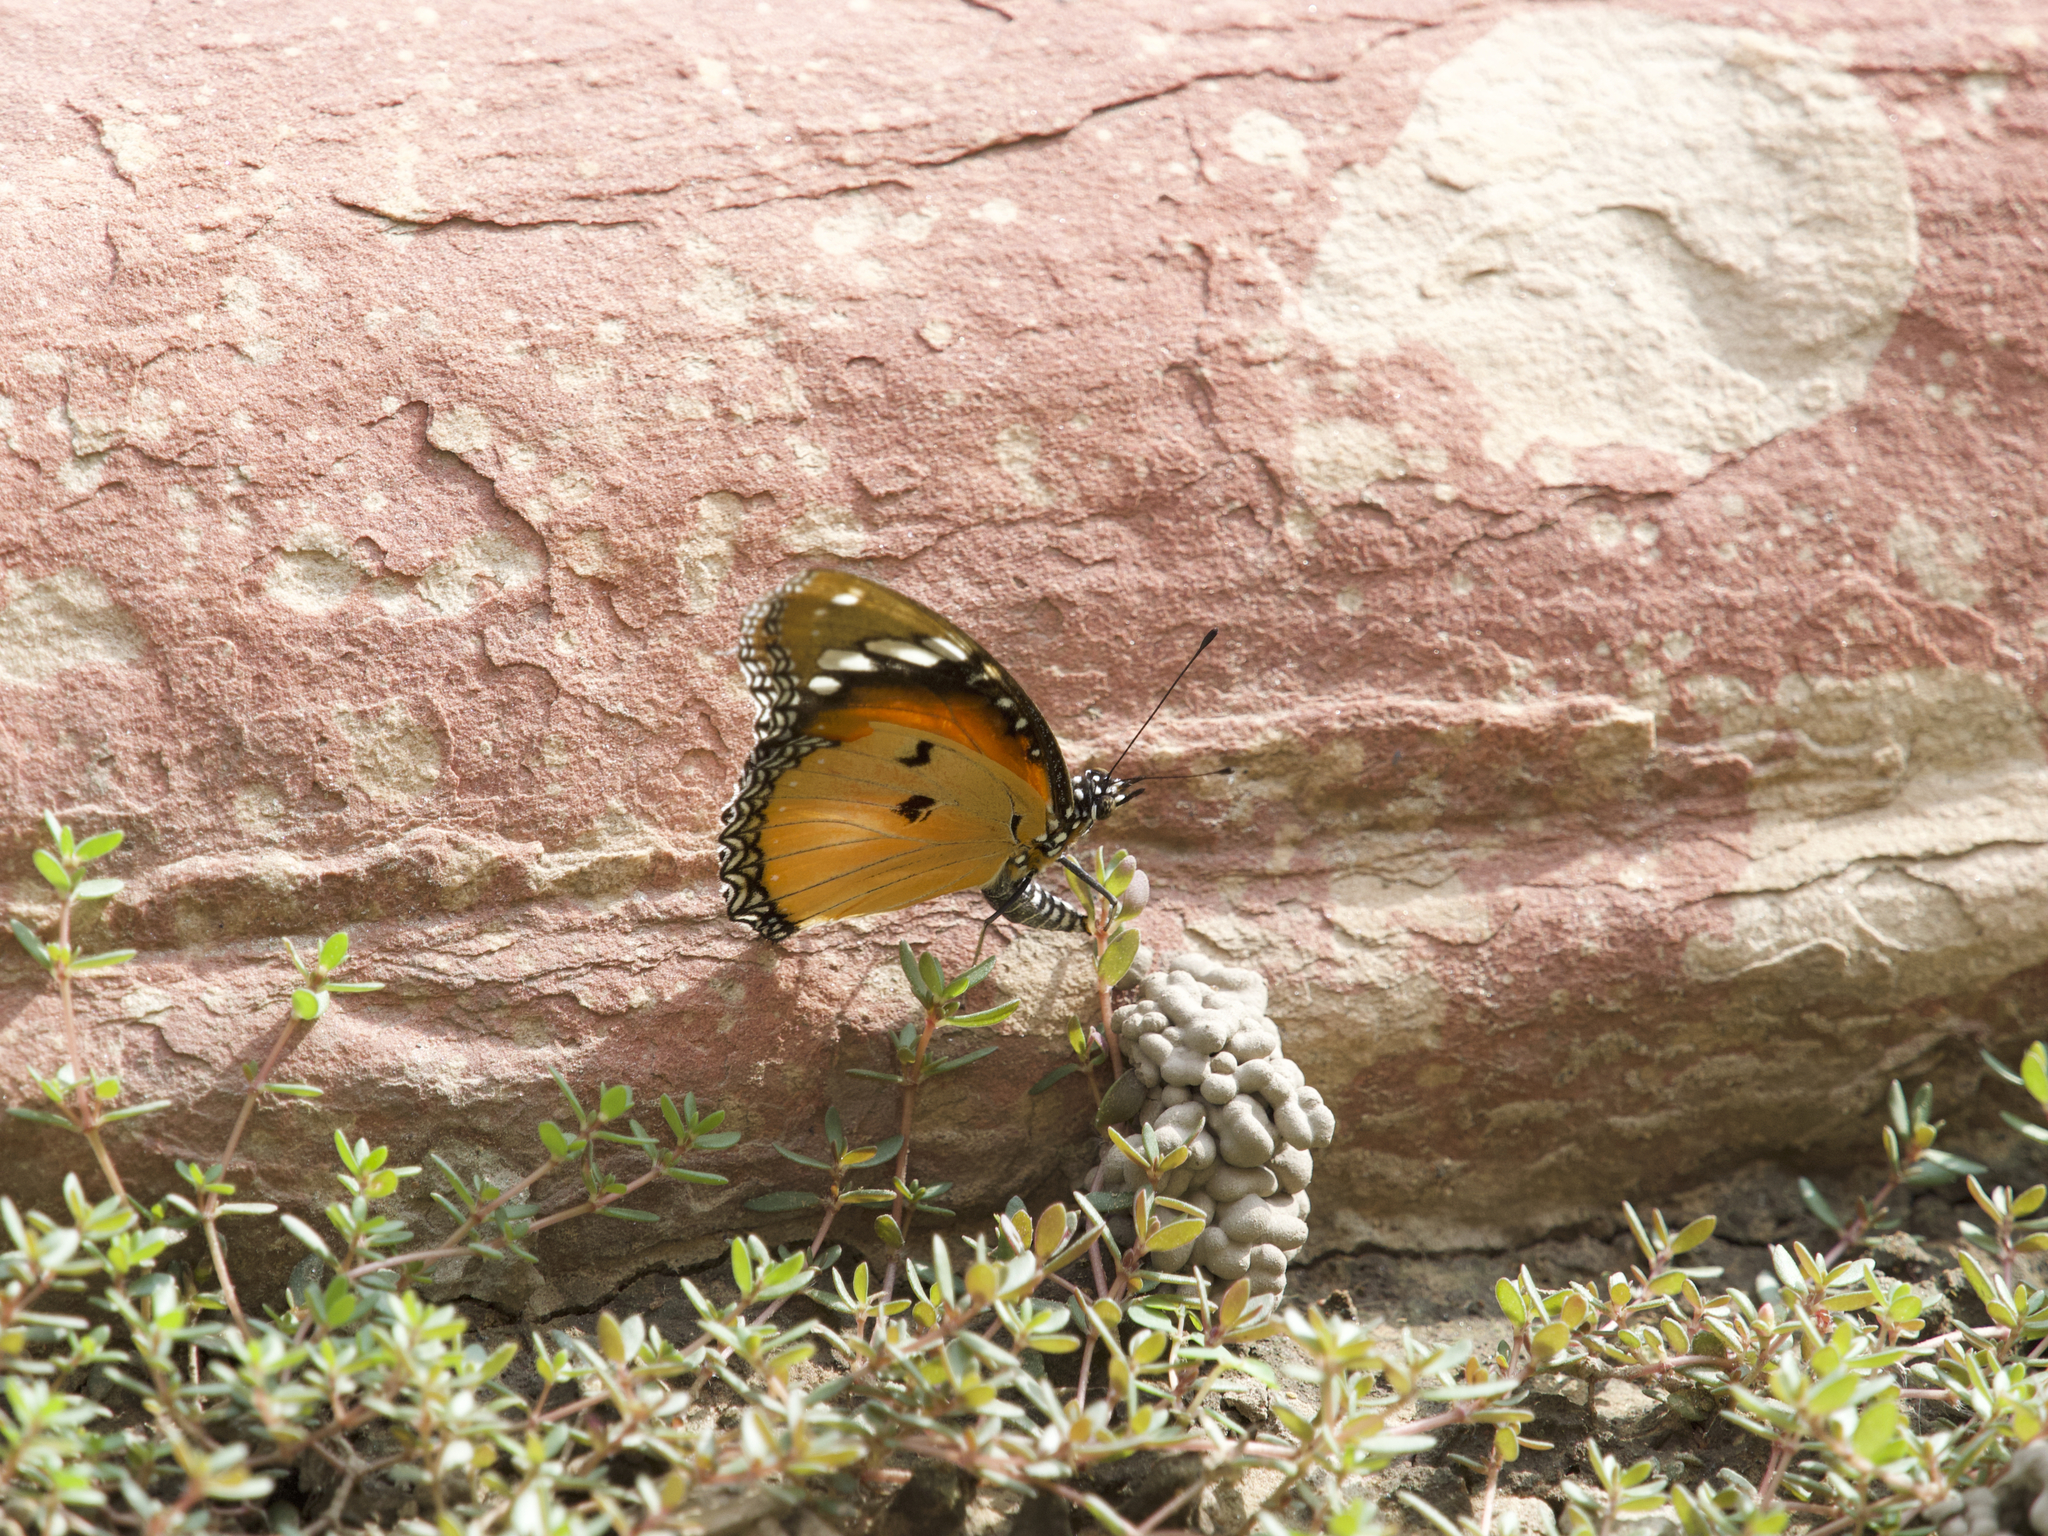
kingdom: Animalia
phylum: Arthropoda
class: Insecta
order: Lepidoptera
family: Nymphalidae
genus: Hypolimnas
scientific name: Hypolimnas misippus
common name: False plain tiger
